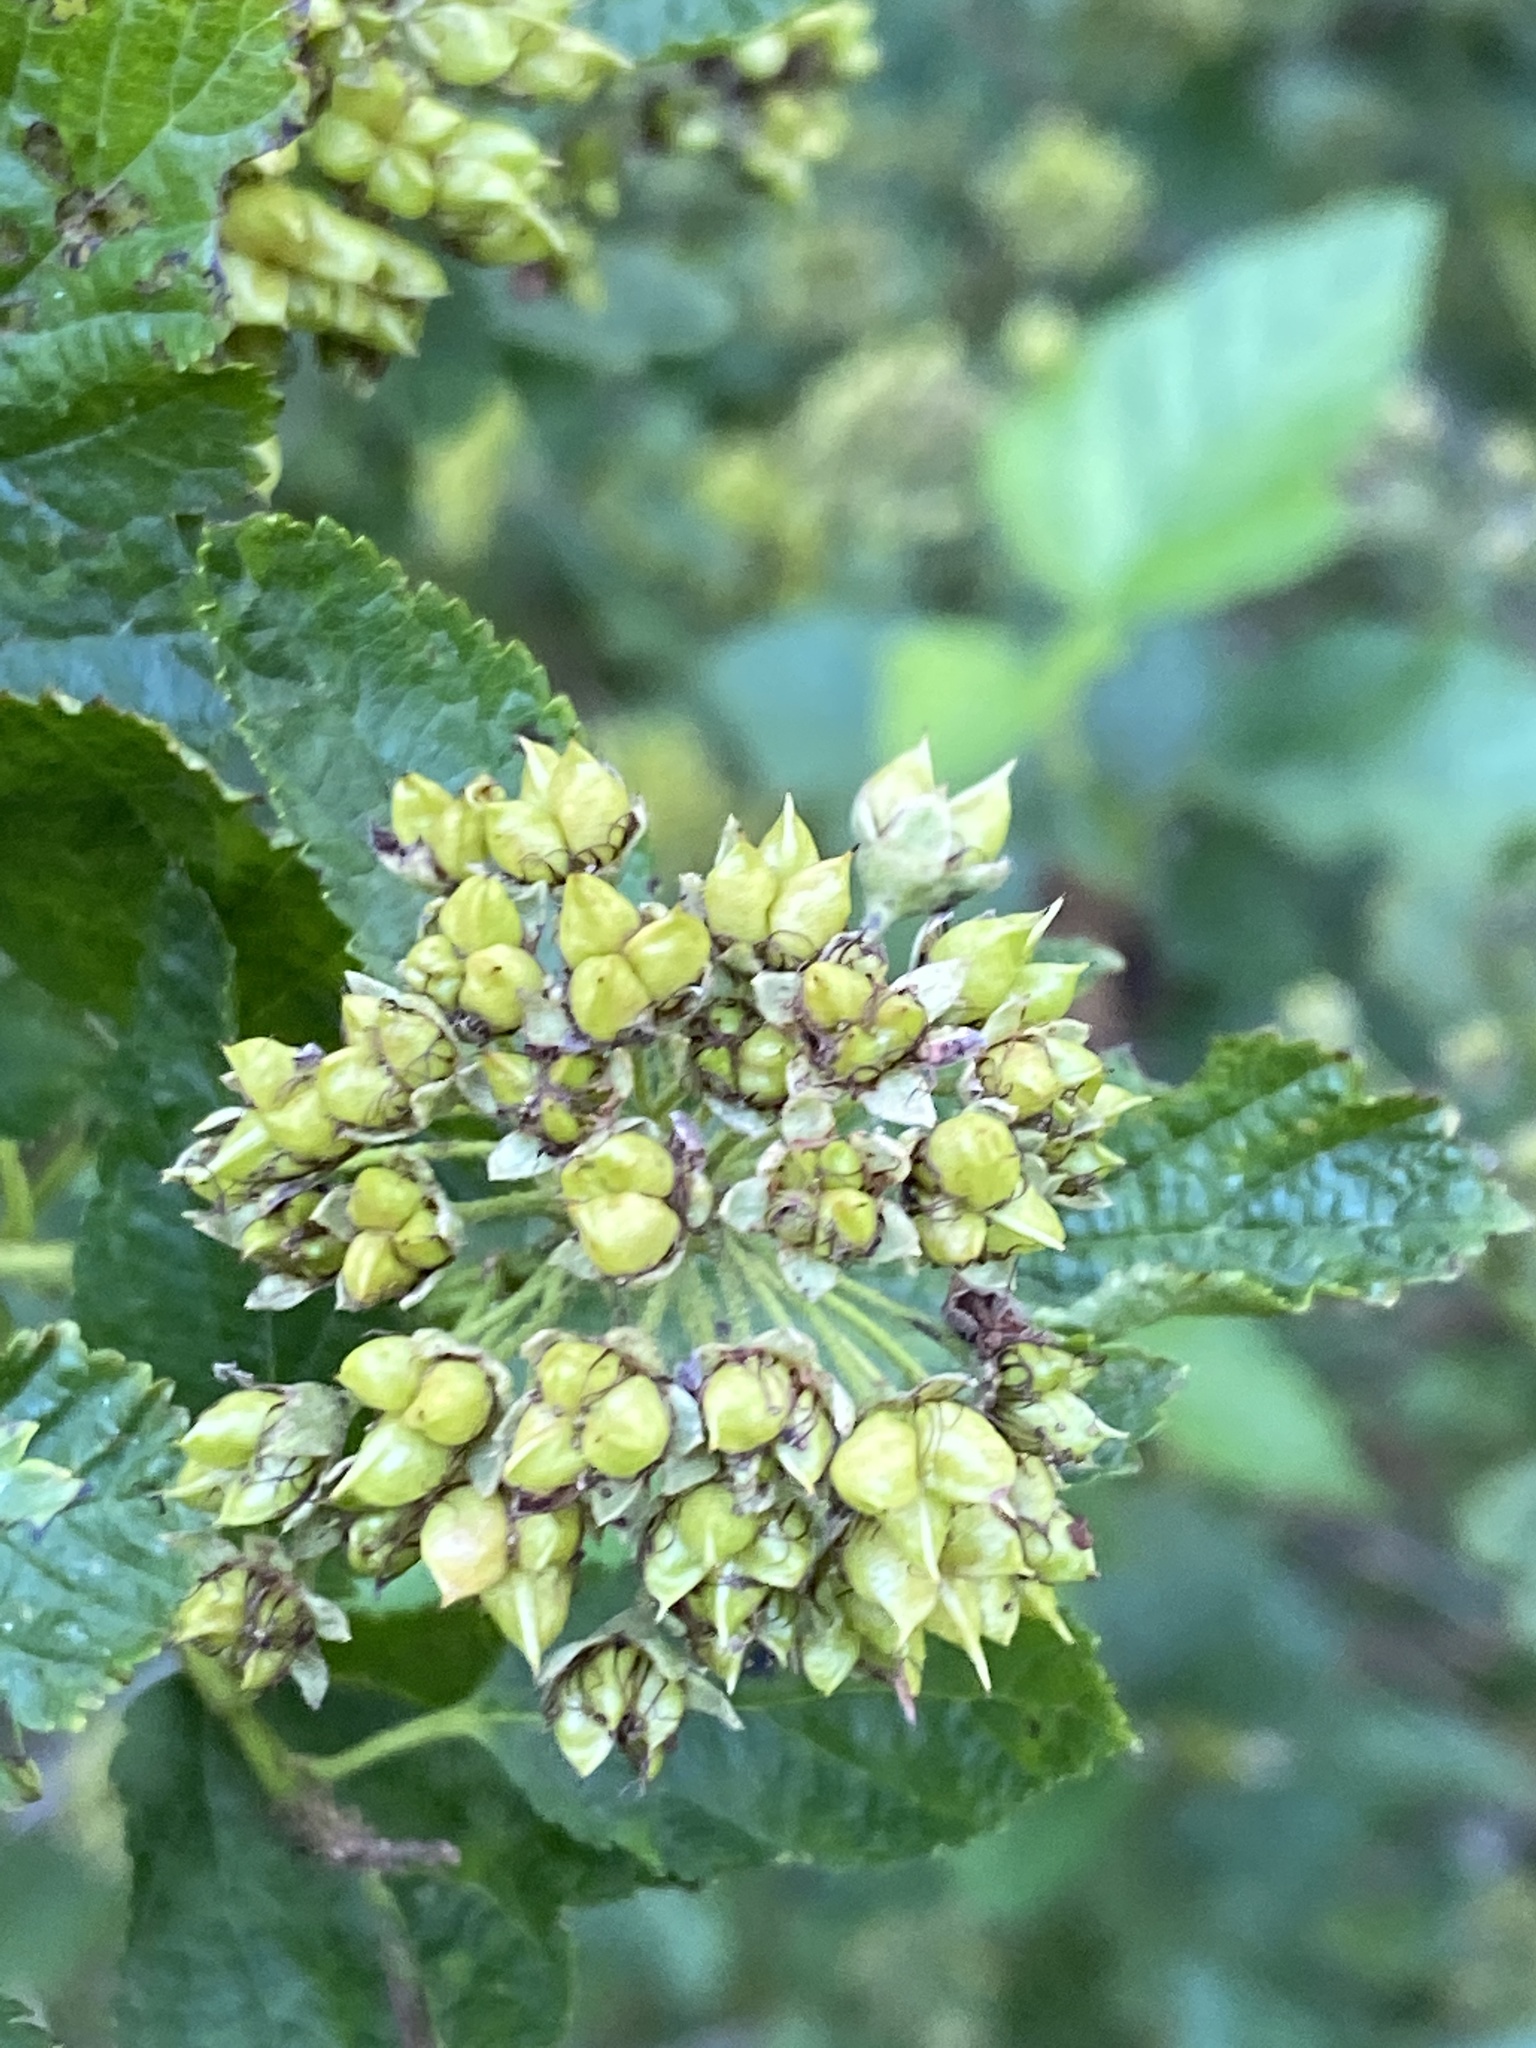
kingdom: Plantae
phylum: Tracheophyta
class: Magnoliopsida
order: Rosales
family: Rosaceae
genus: Physocarpus
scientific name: Physocarpus opulifolius
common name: Ninebark
